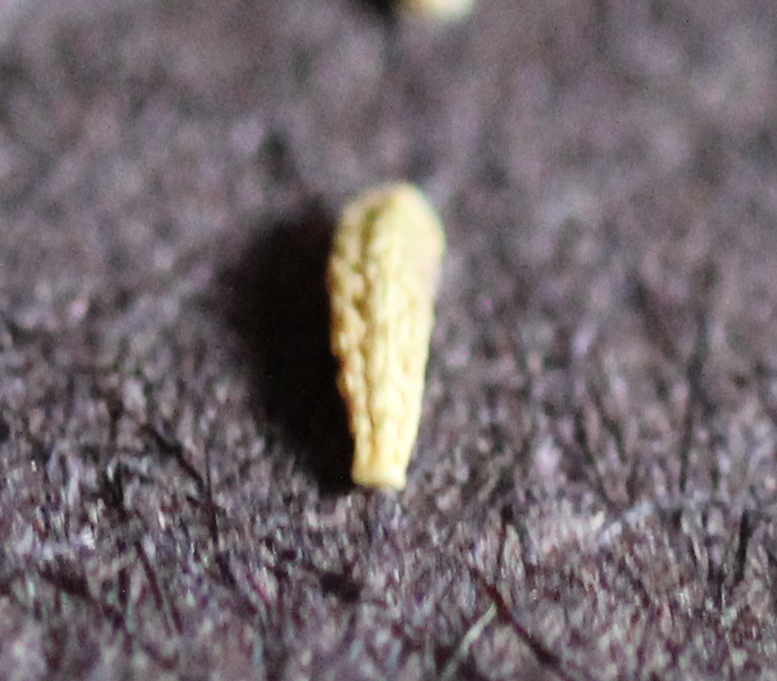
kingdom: Plantae
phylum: Tracheophyta
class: Magnoliopsida
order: Asterales
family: Asteraceae
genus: Stephanomeria
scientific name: Stephanomeria diegensis
